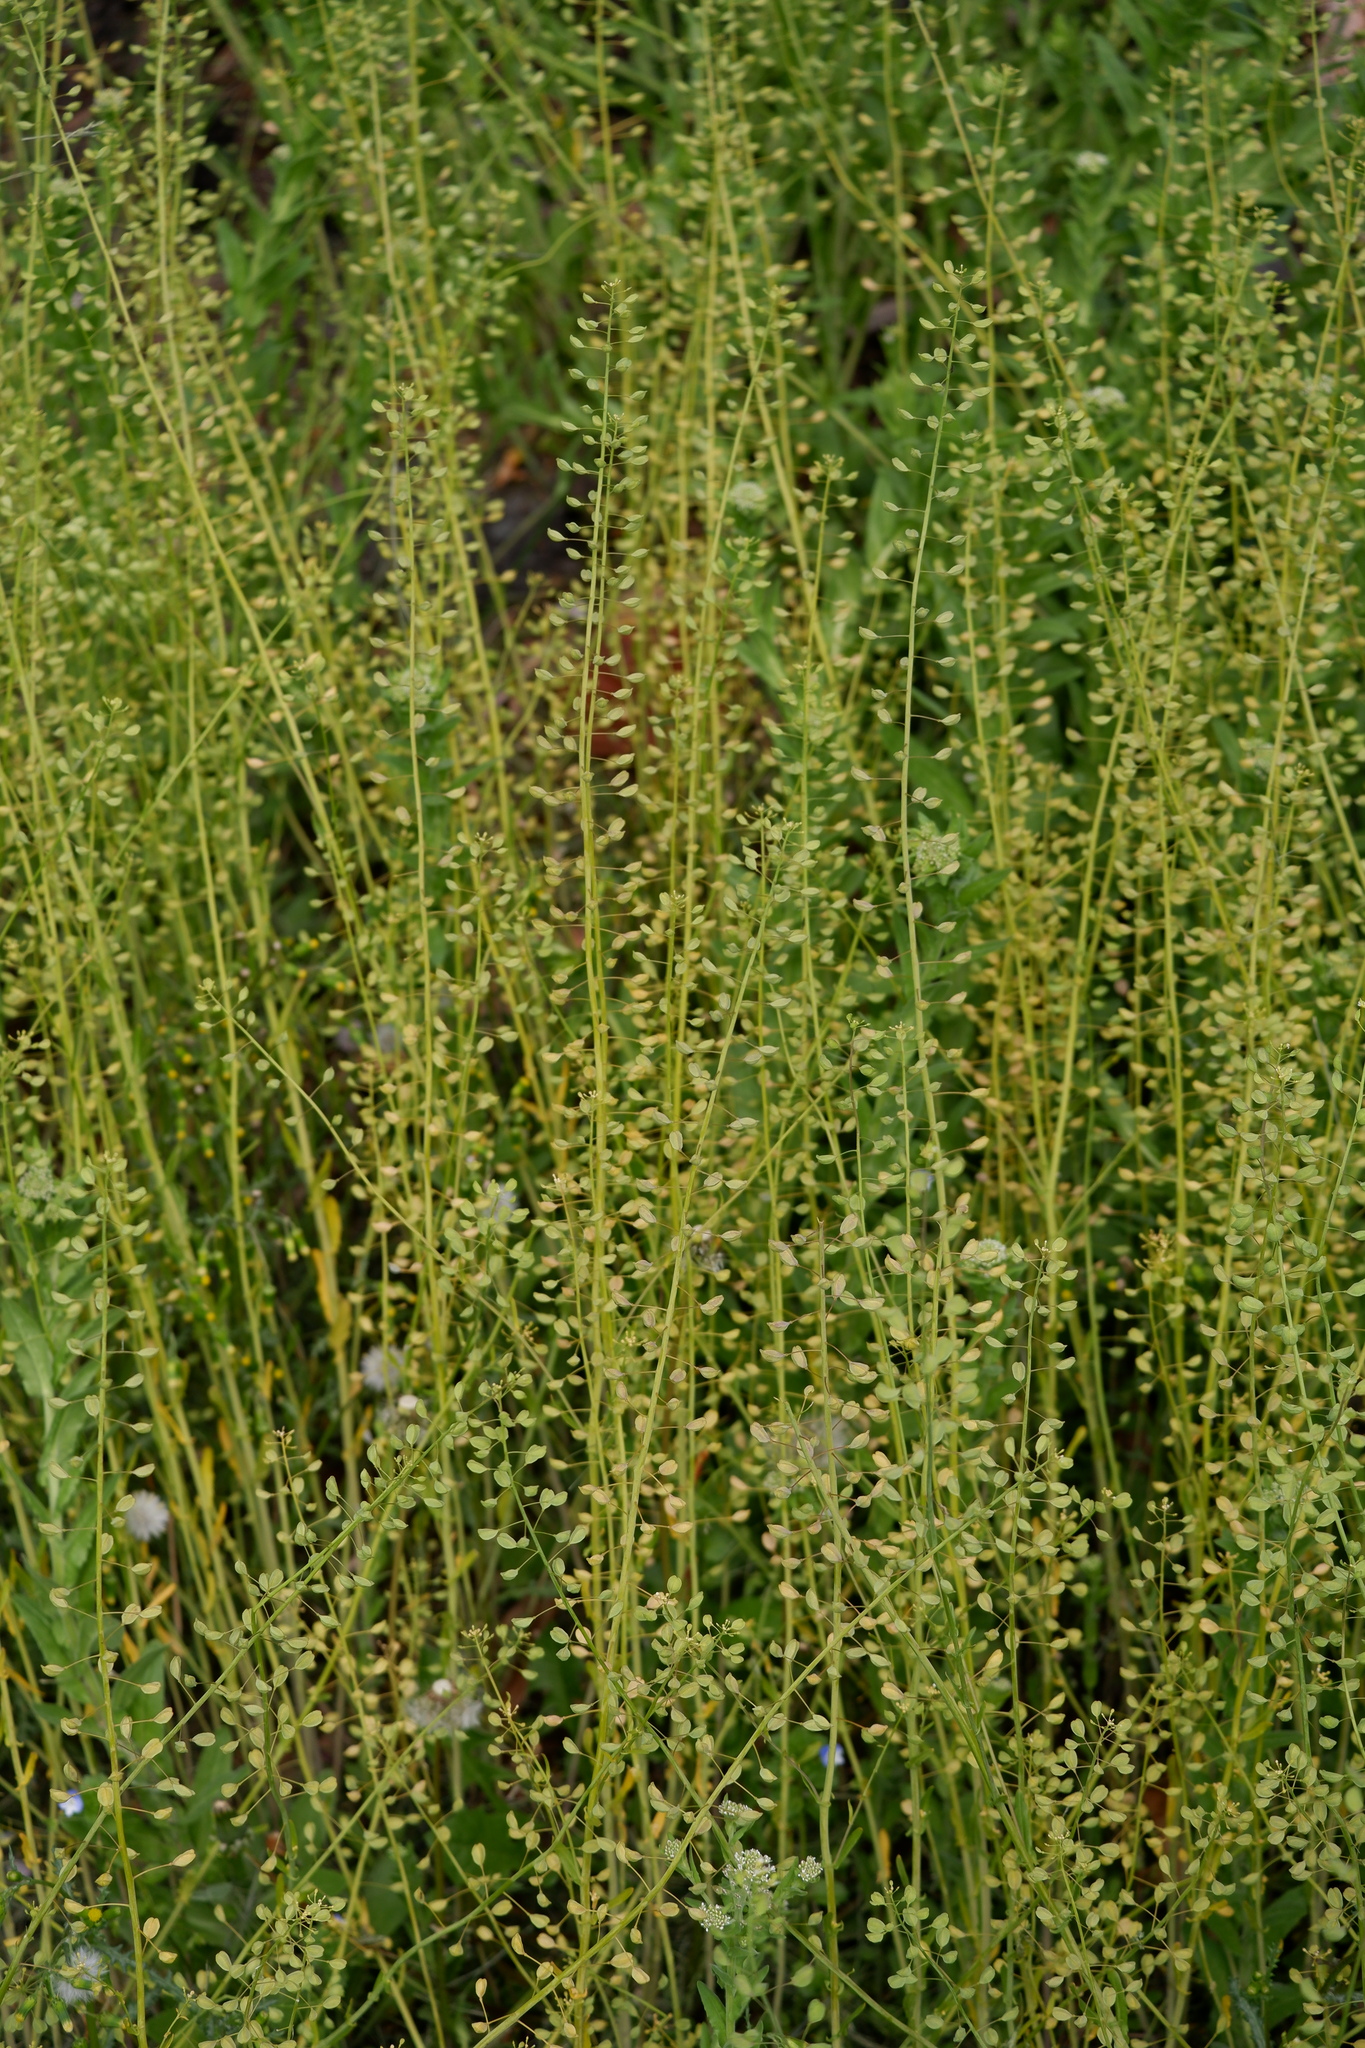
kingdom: Plantae
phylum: Tracheophyta
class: Magnoliopsida
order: Brassicales
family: Brassicaceae
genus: Mummenhoffia
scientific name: Mummenhoffia alliacea
